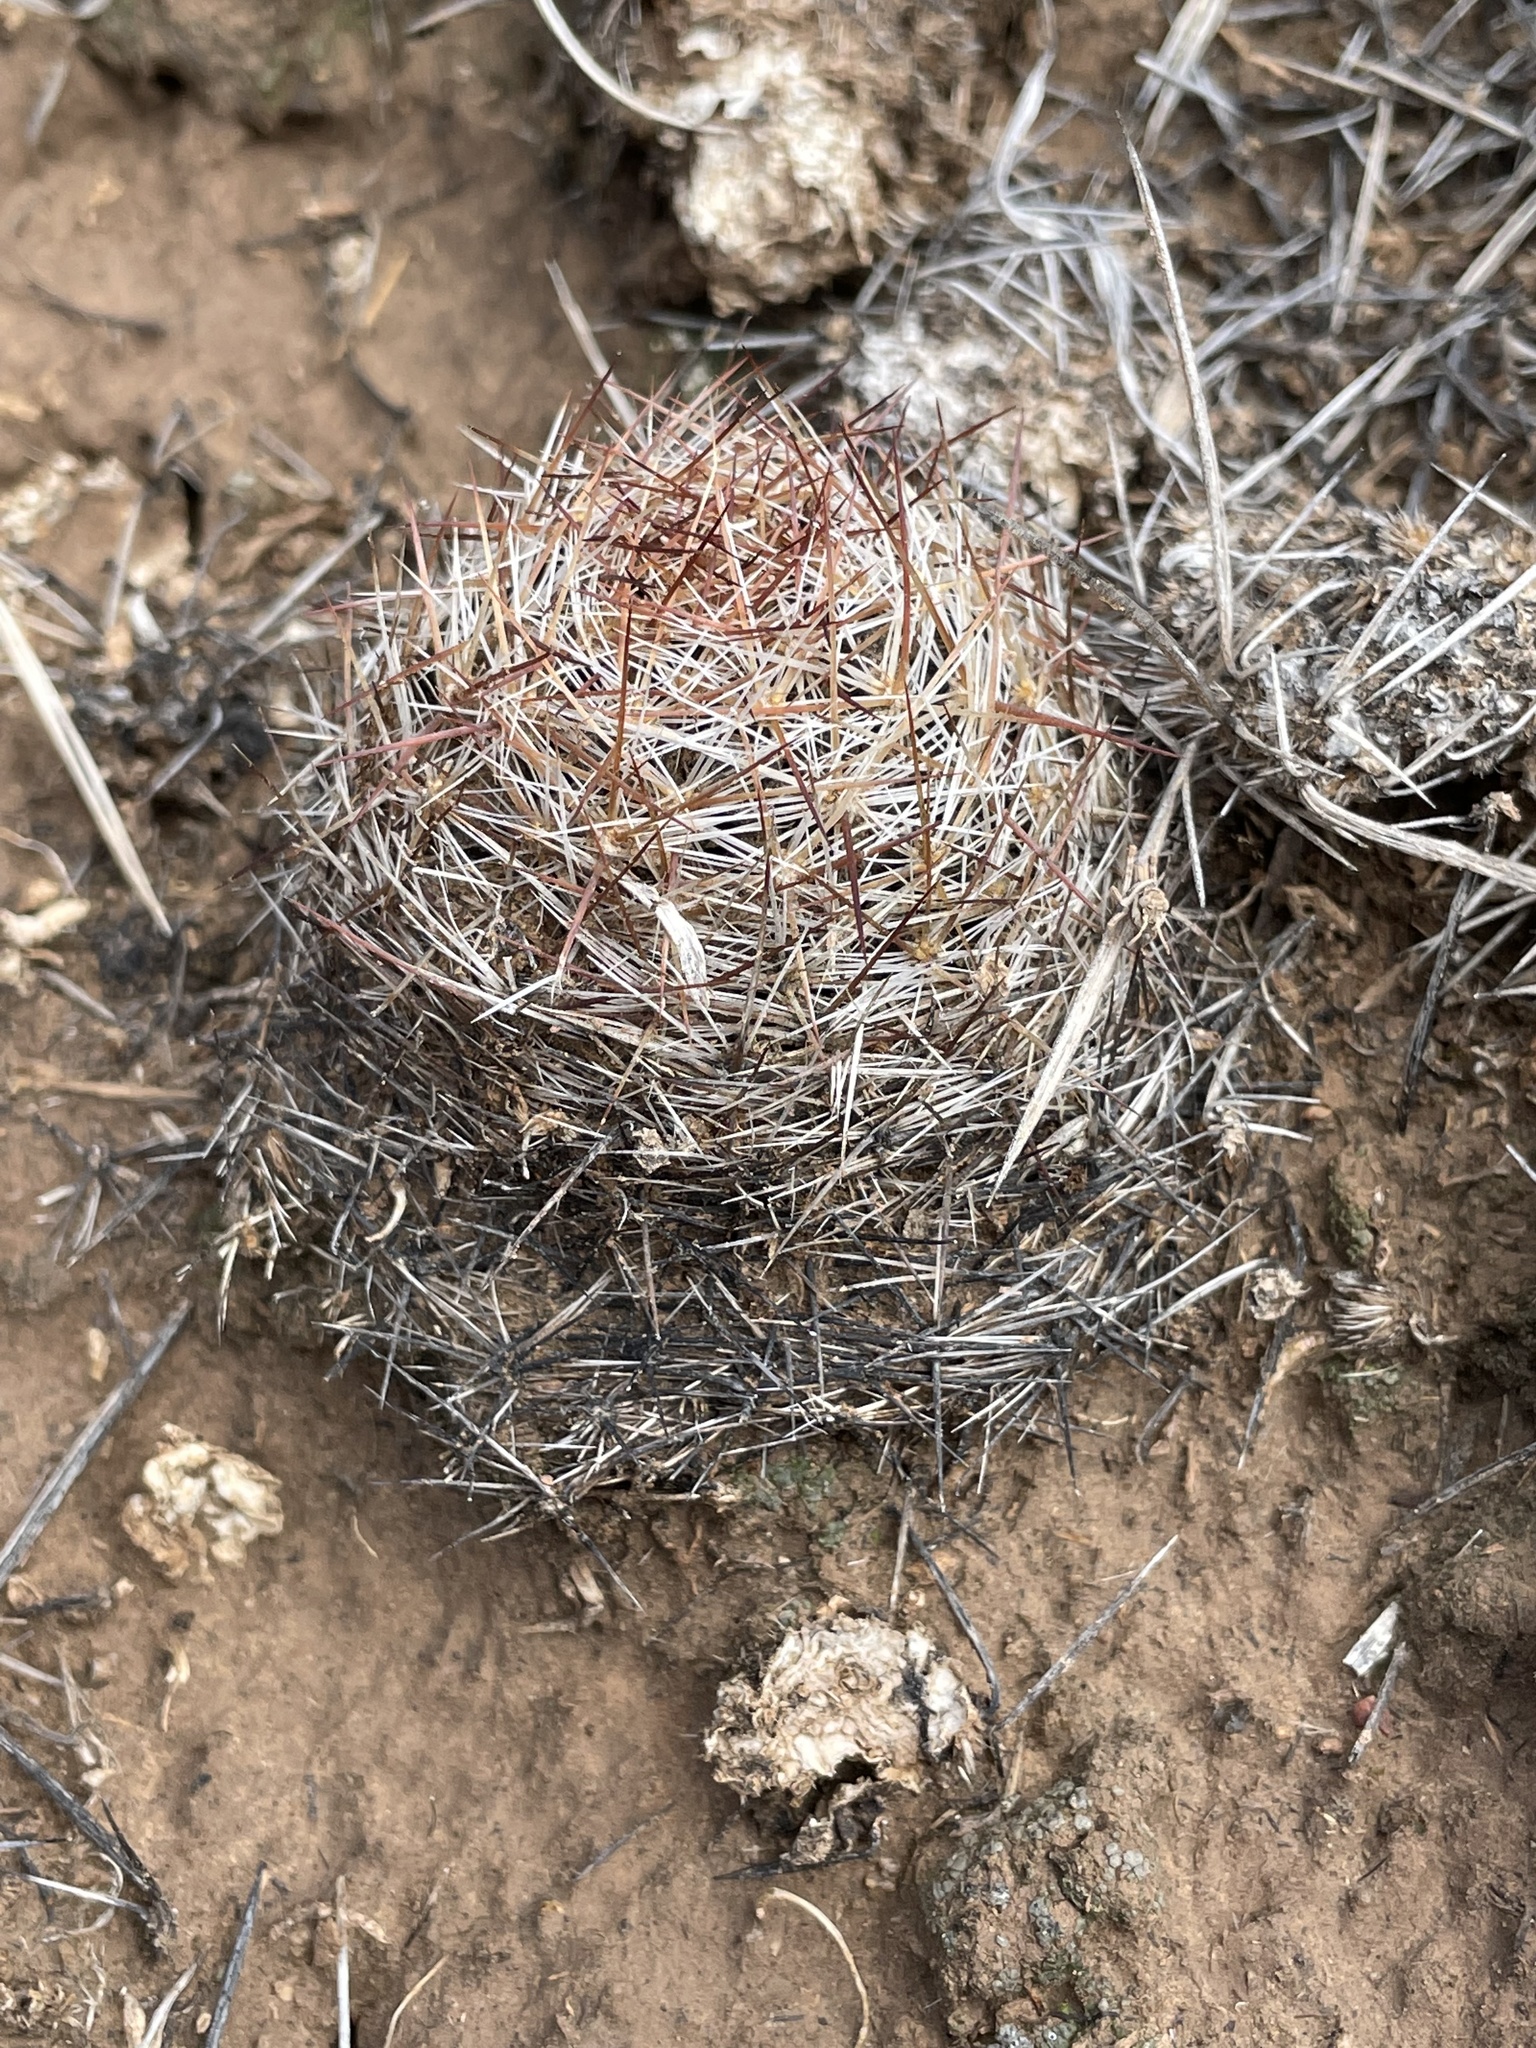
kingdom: Plantae
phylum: Tracheophyta
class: Magnoliopsida
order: Caryophyllales
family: Cactaceae
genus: Pelecyphora
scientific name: Pelecyphora vivipara
